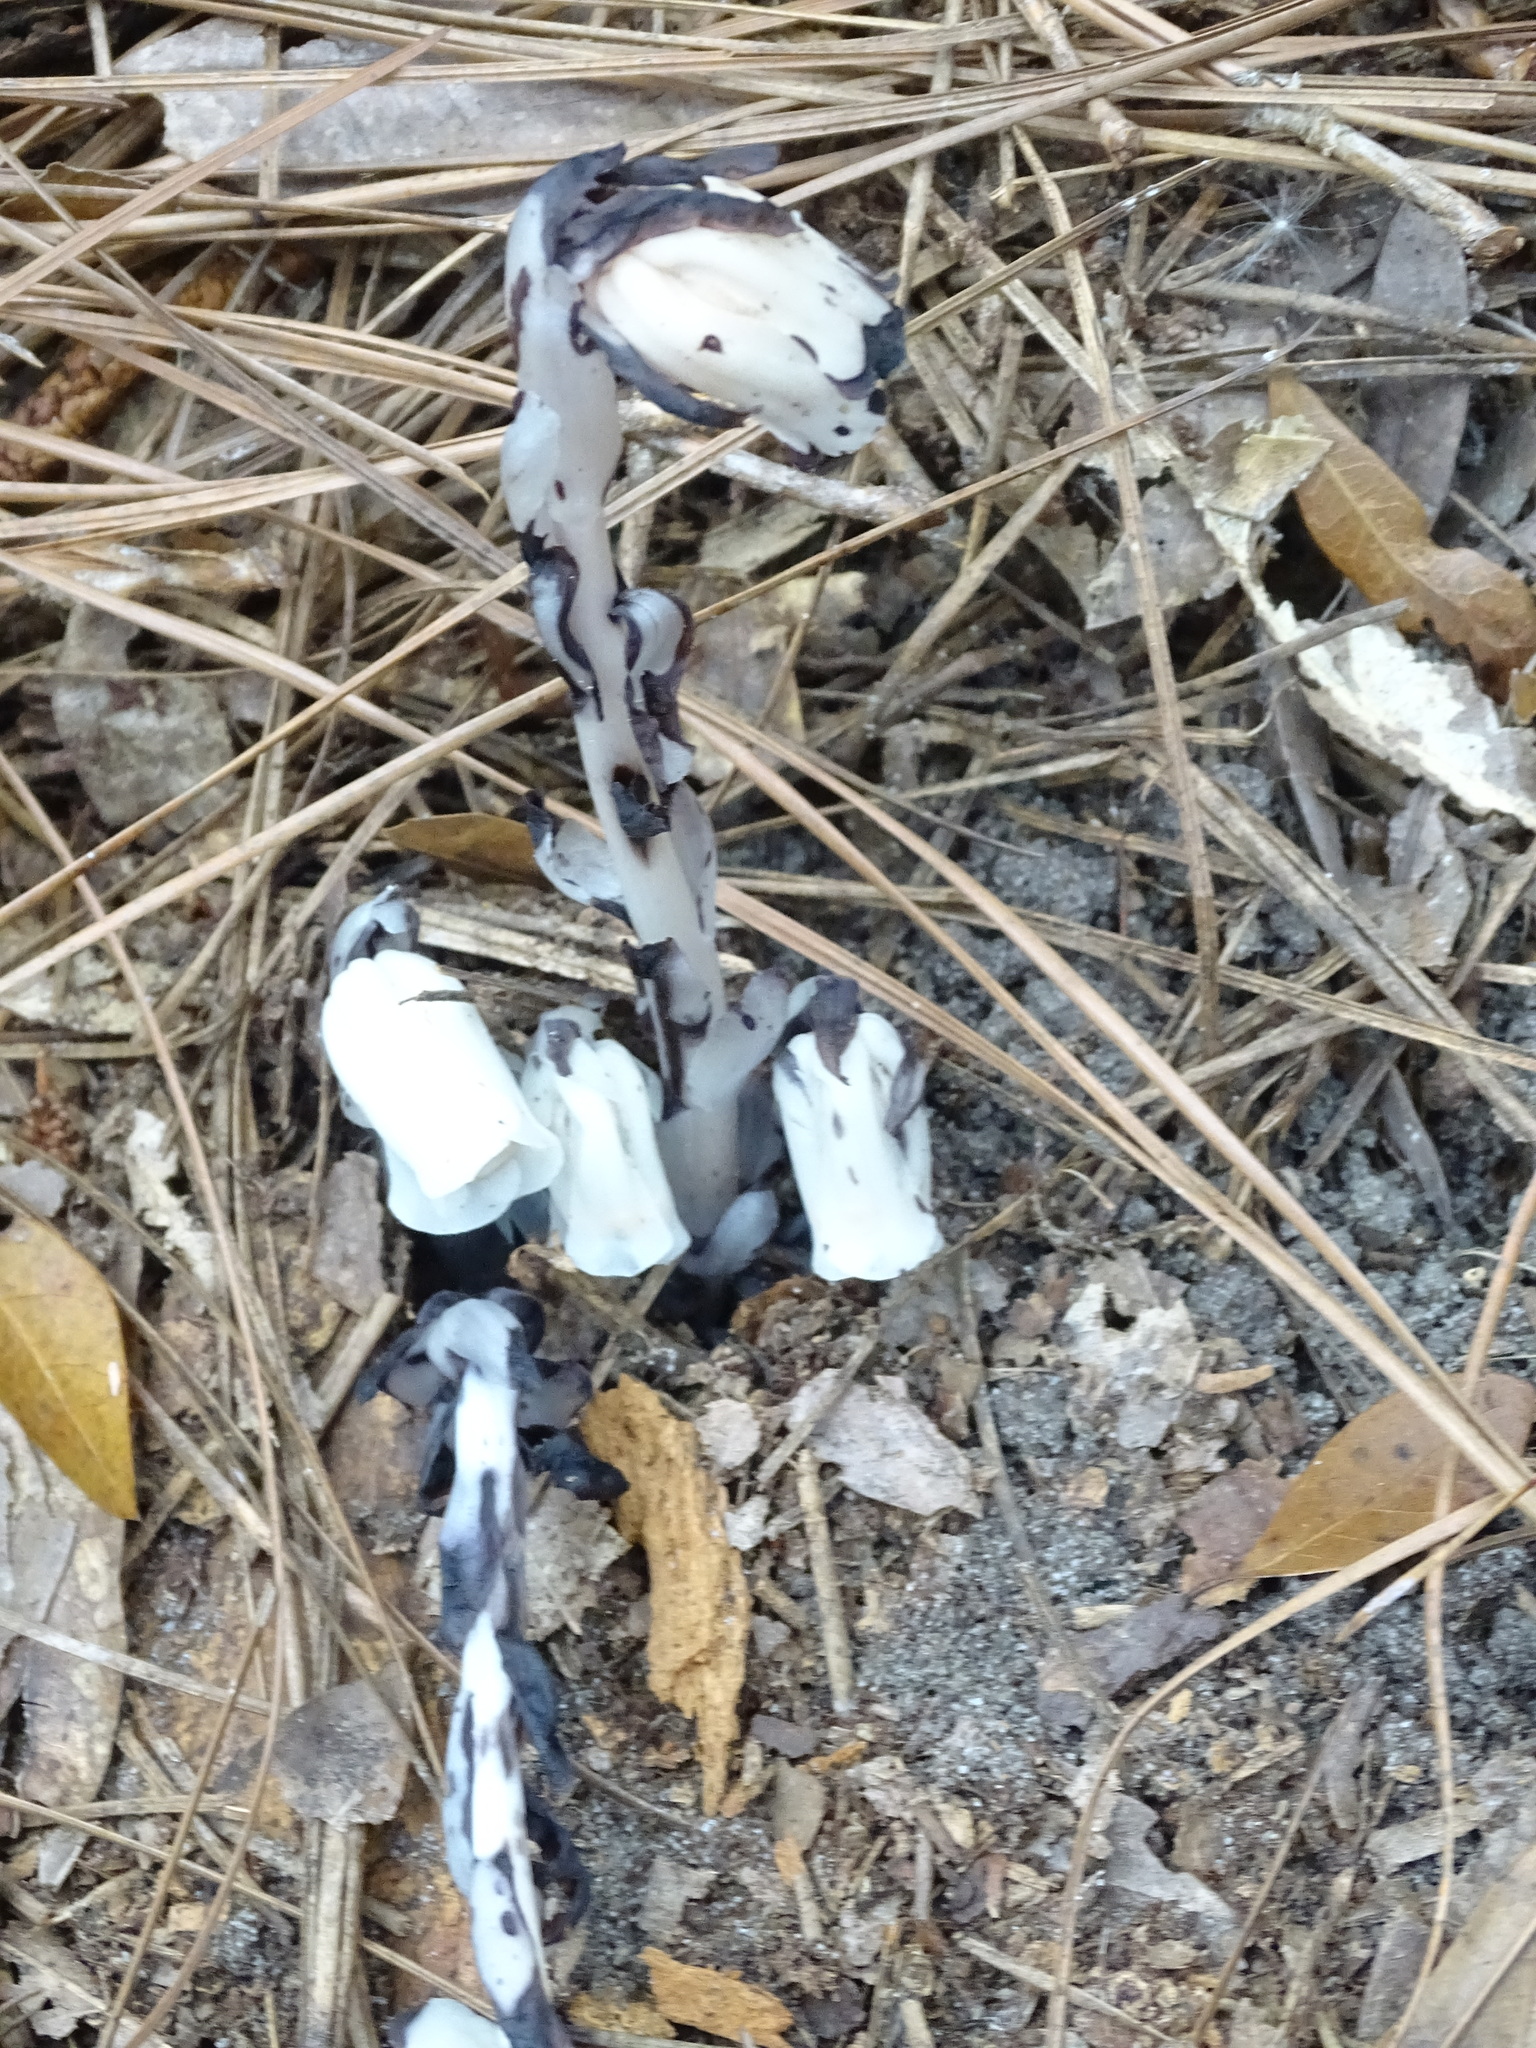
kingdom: Plantae
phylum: Tracheophyta
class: Magnoliopsida
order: Ericales
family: Ericaceae
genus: Monotropa
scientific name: Monotropa uniflora
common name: Convulsion root
